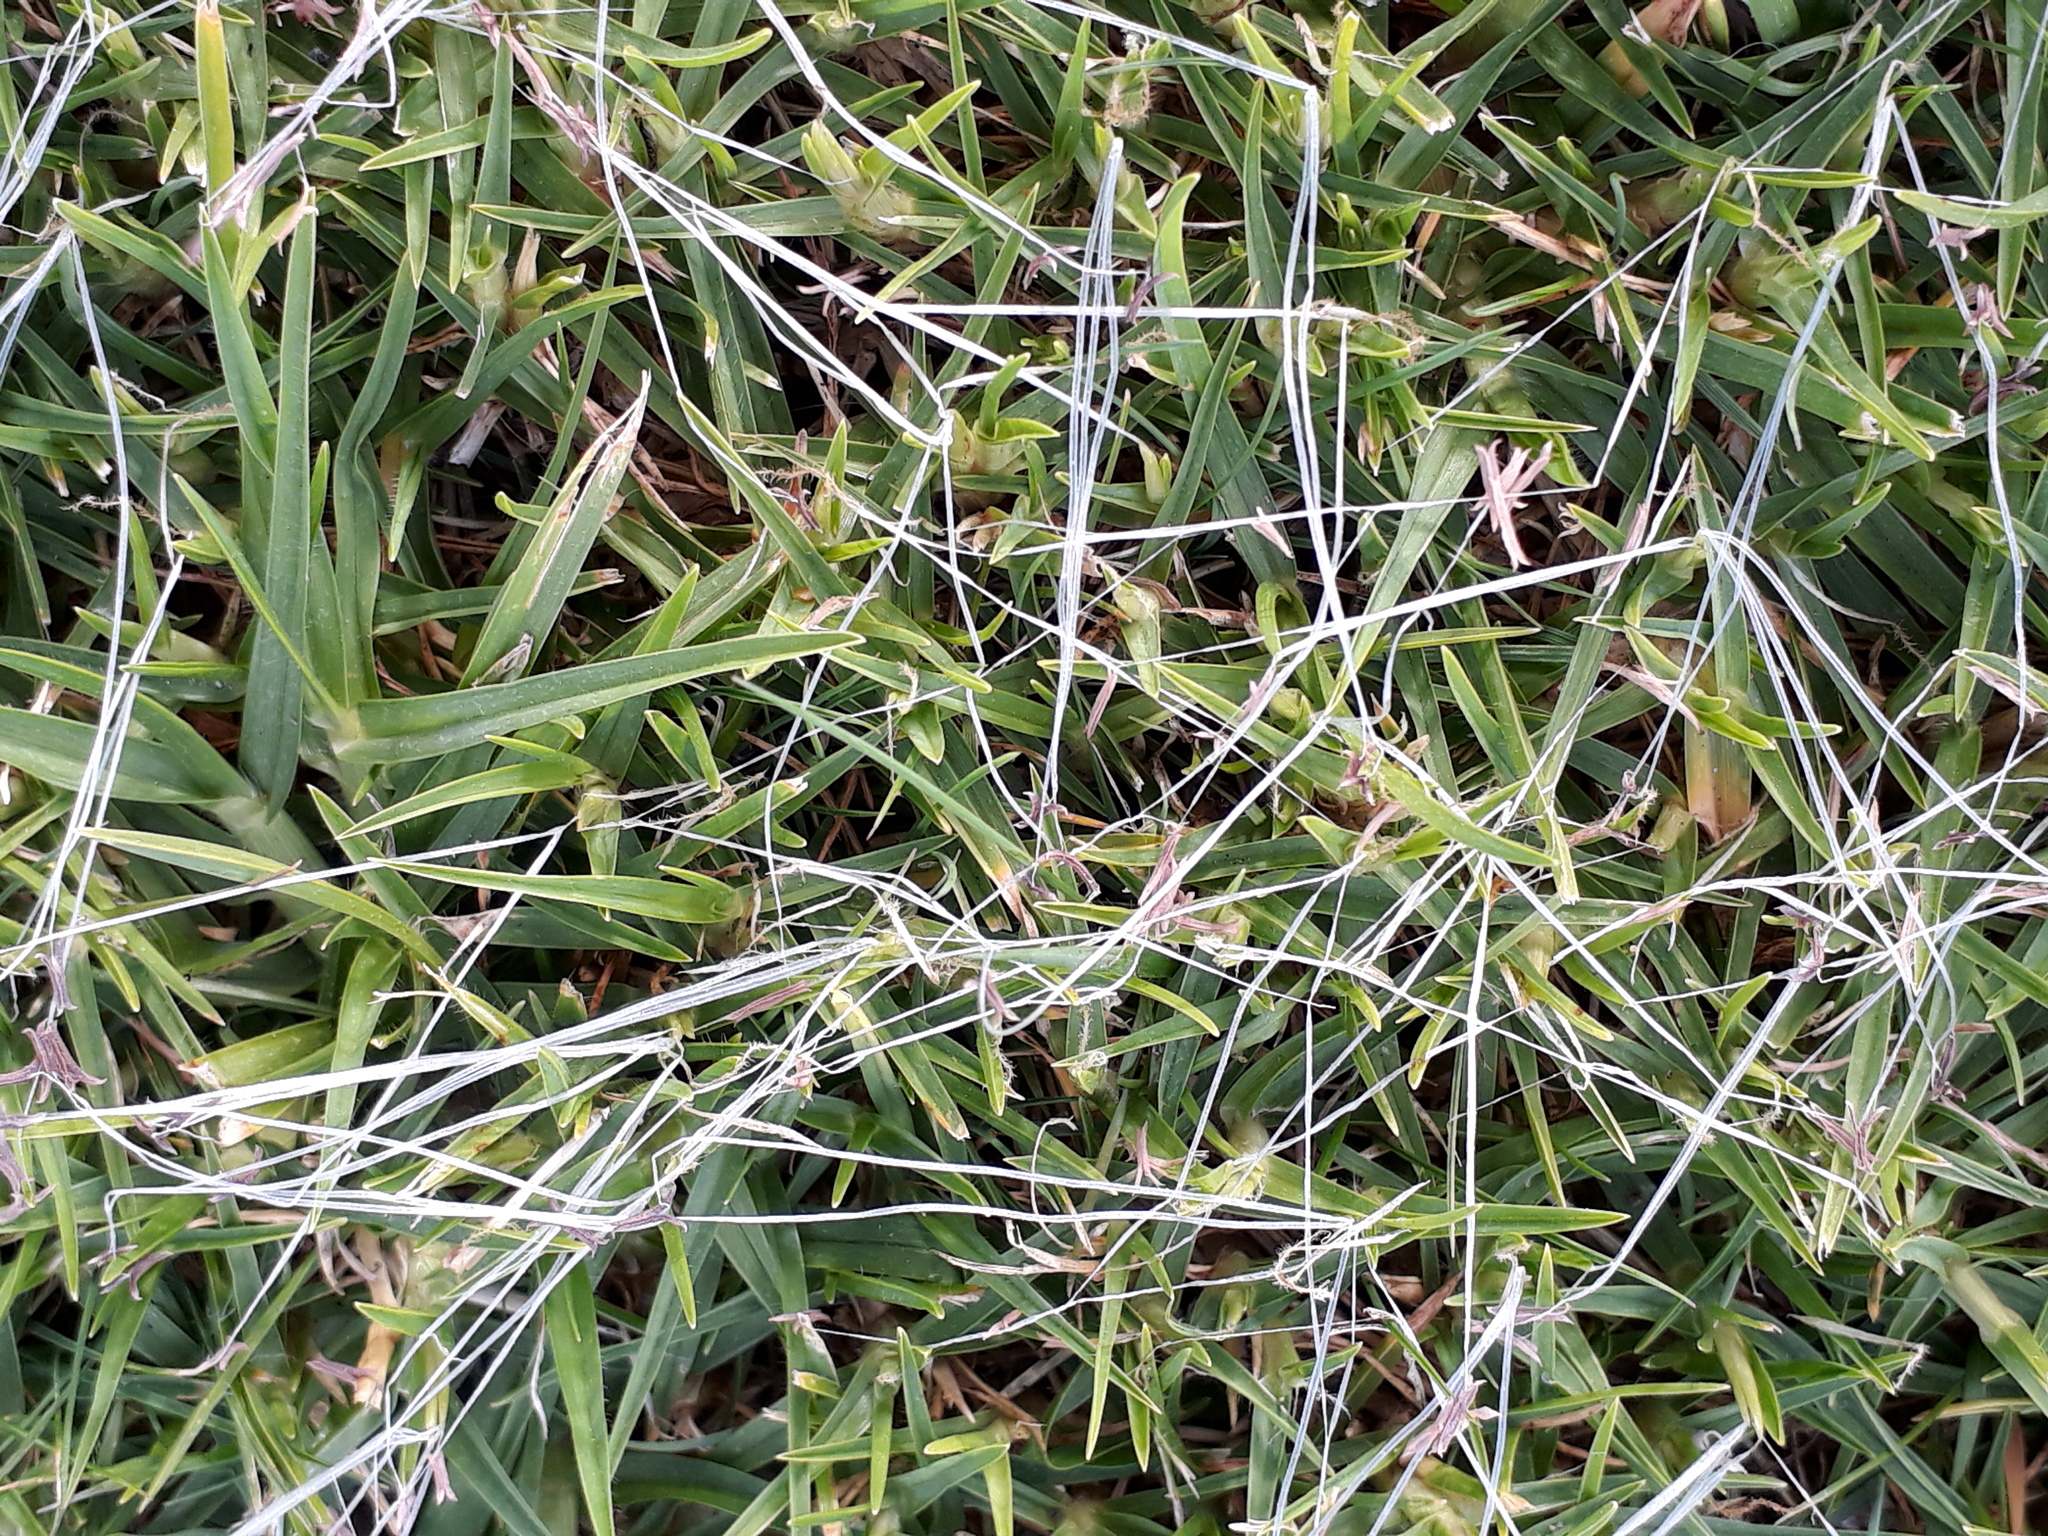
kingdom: Plantae
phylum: Tracheophyta
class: Liliopsida
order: Poales
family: Poaceae
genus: Cenchrus
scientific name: Cenchrus clandestinus
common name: Kikuyugrass
